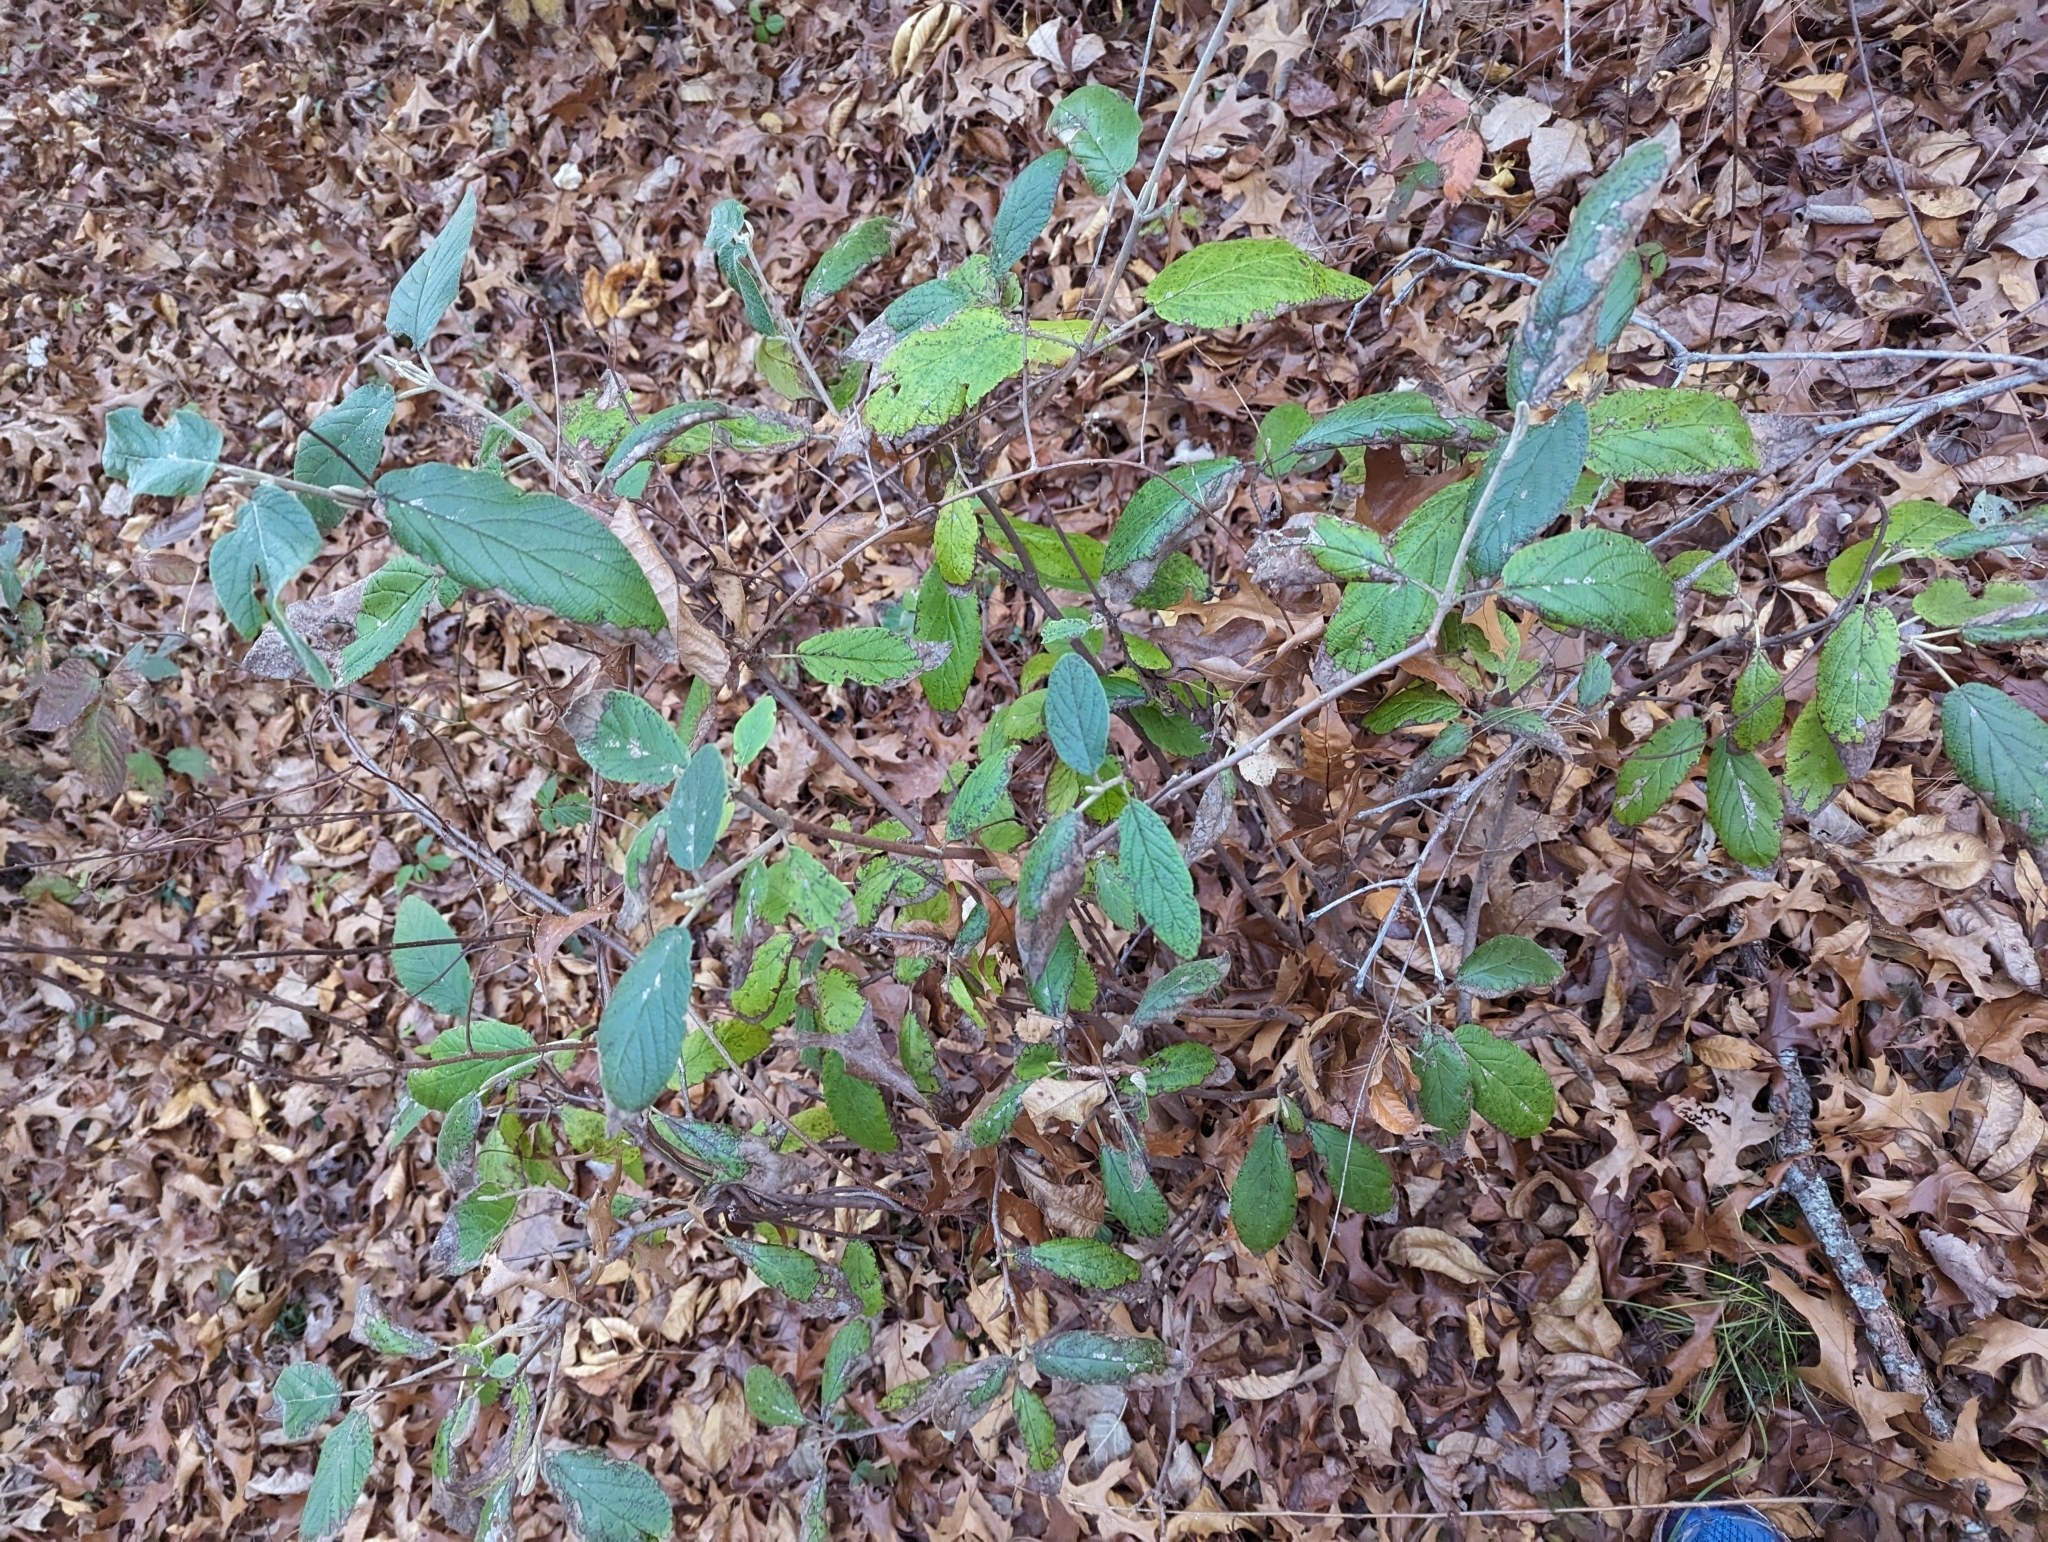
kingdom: Plantae
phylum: Tracheophyta
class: Magnoliopsida
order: Dipsacales
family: Viburnaceae
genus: Viburnum
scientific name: Viburnum rhytidophyllum
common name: Wrinkled viburnum
